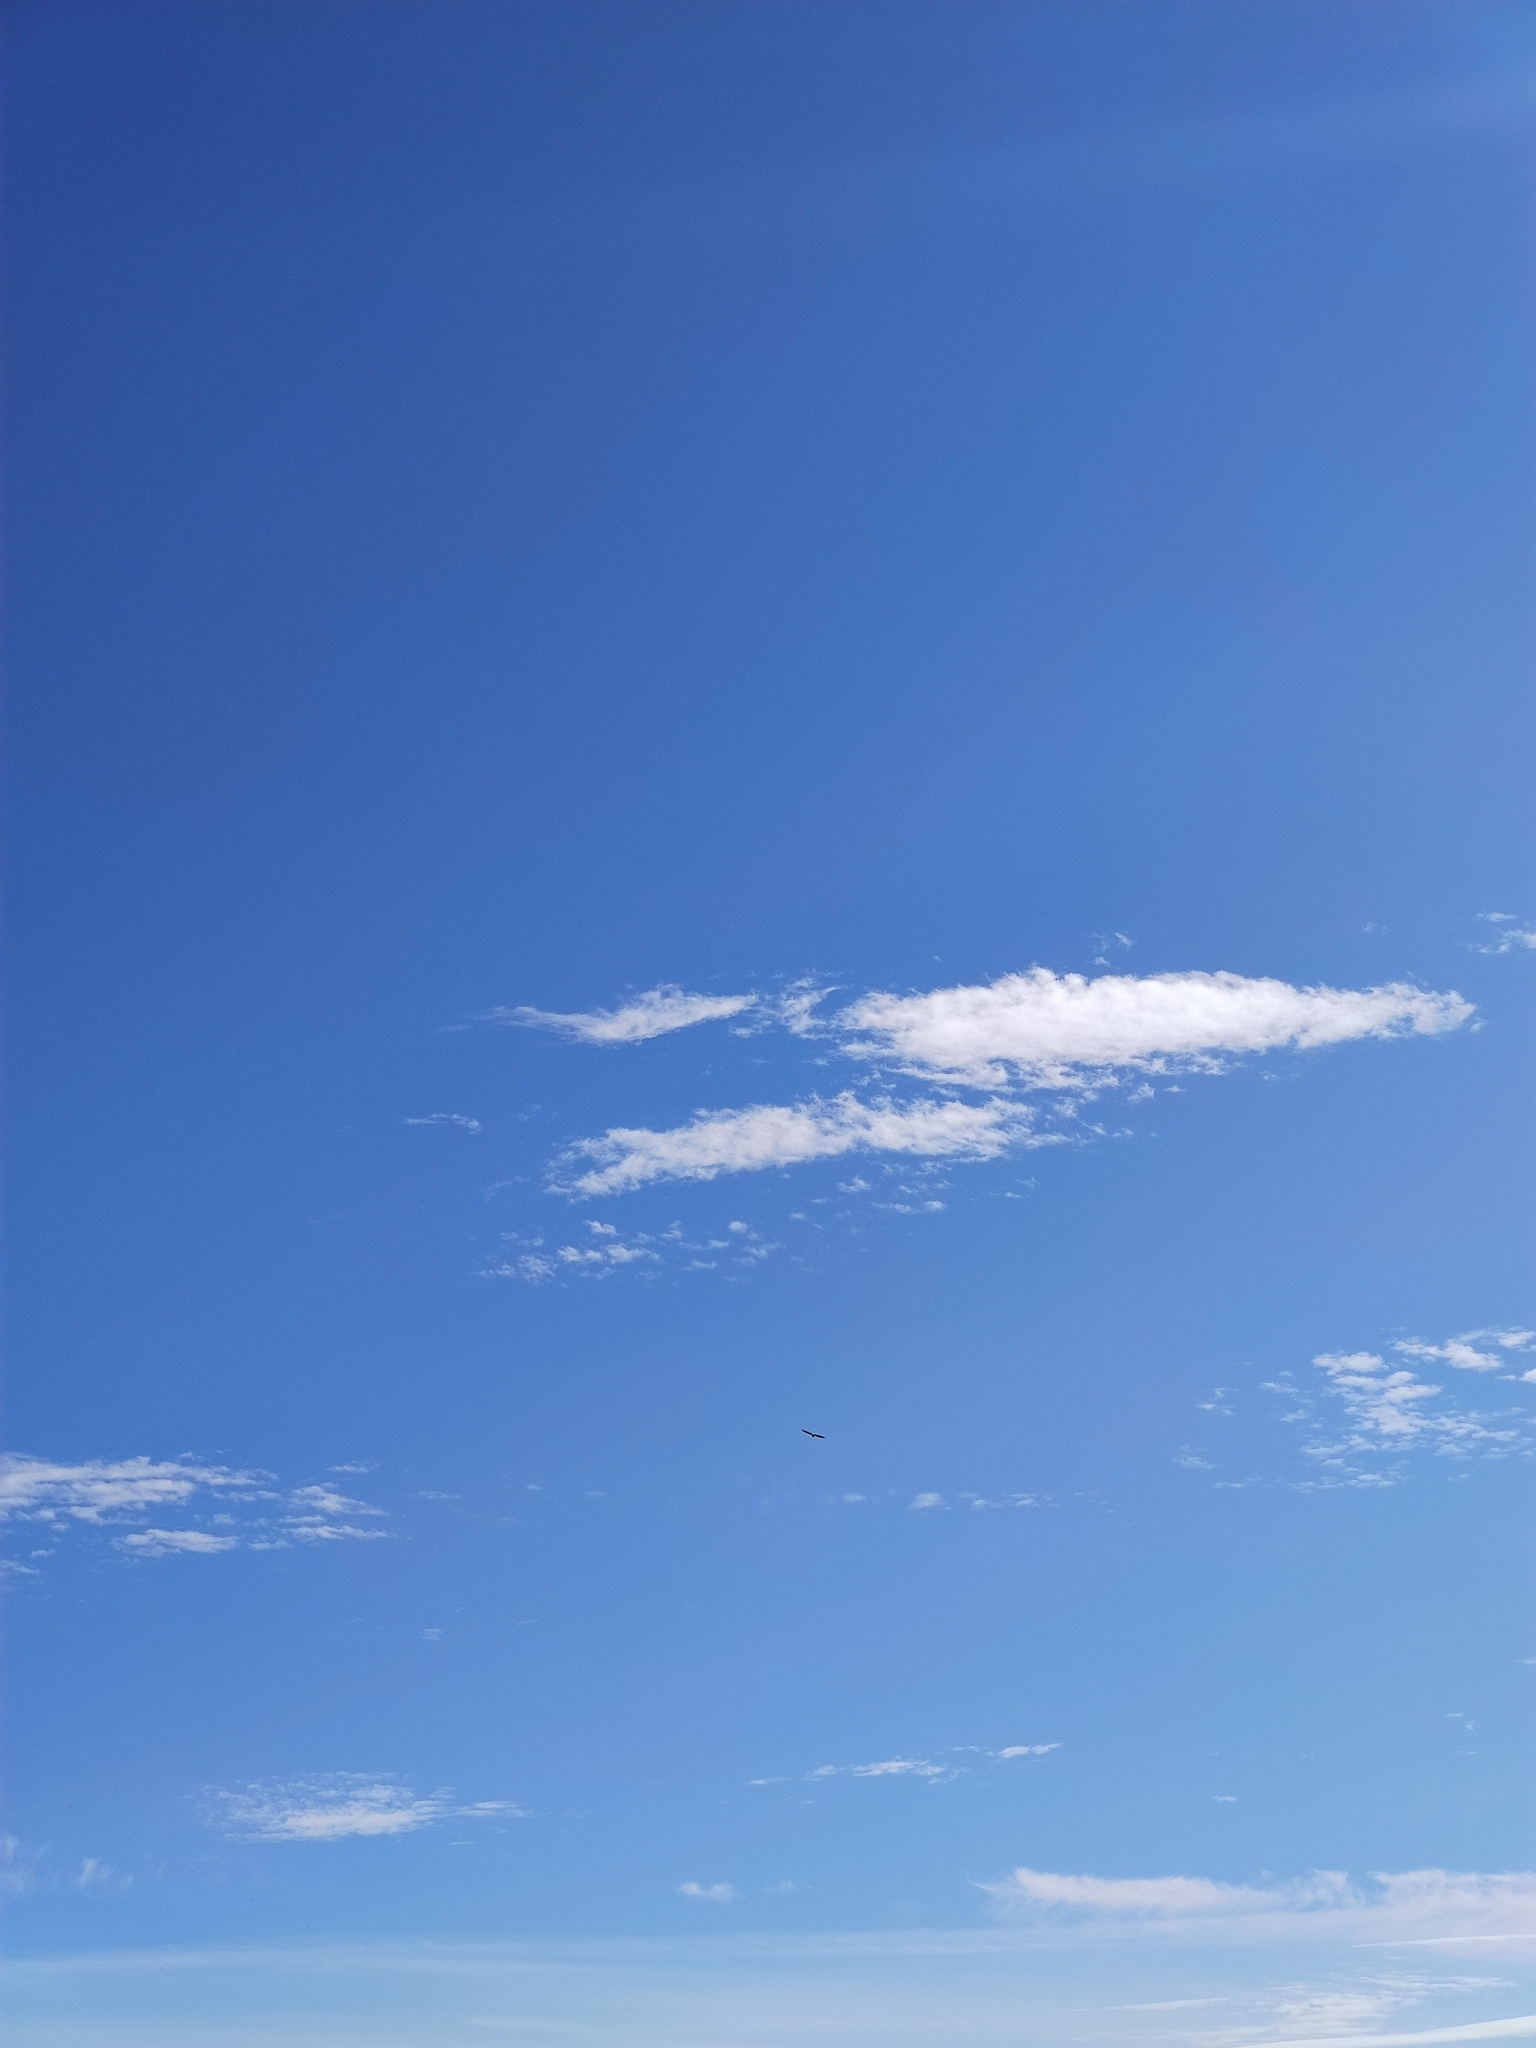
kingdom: Animalia
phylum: Chordata
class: Aves
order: Accipitriformes
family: Accipitridae
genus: Haliaeetus
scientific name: Haliaeetus albicilla
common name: White-tailed eagle
